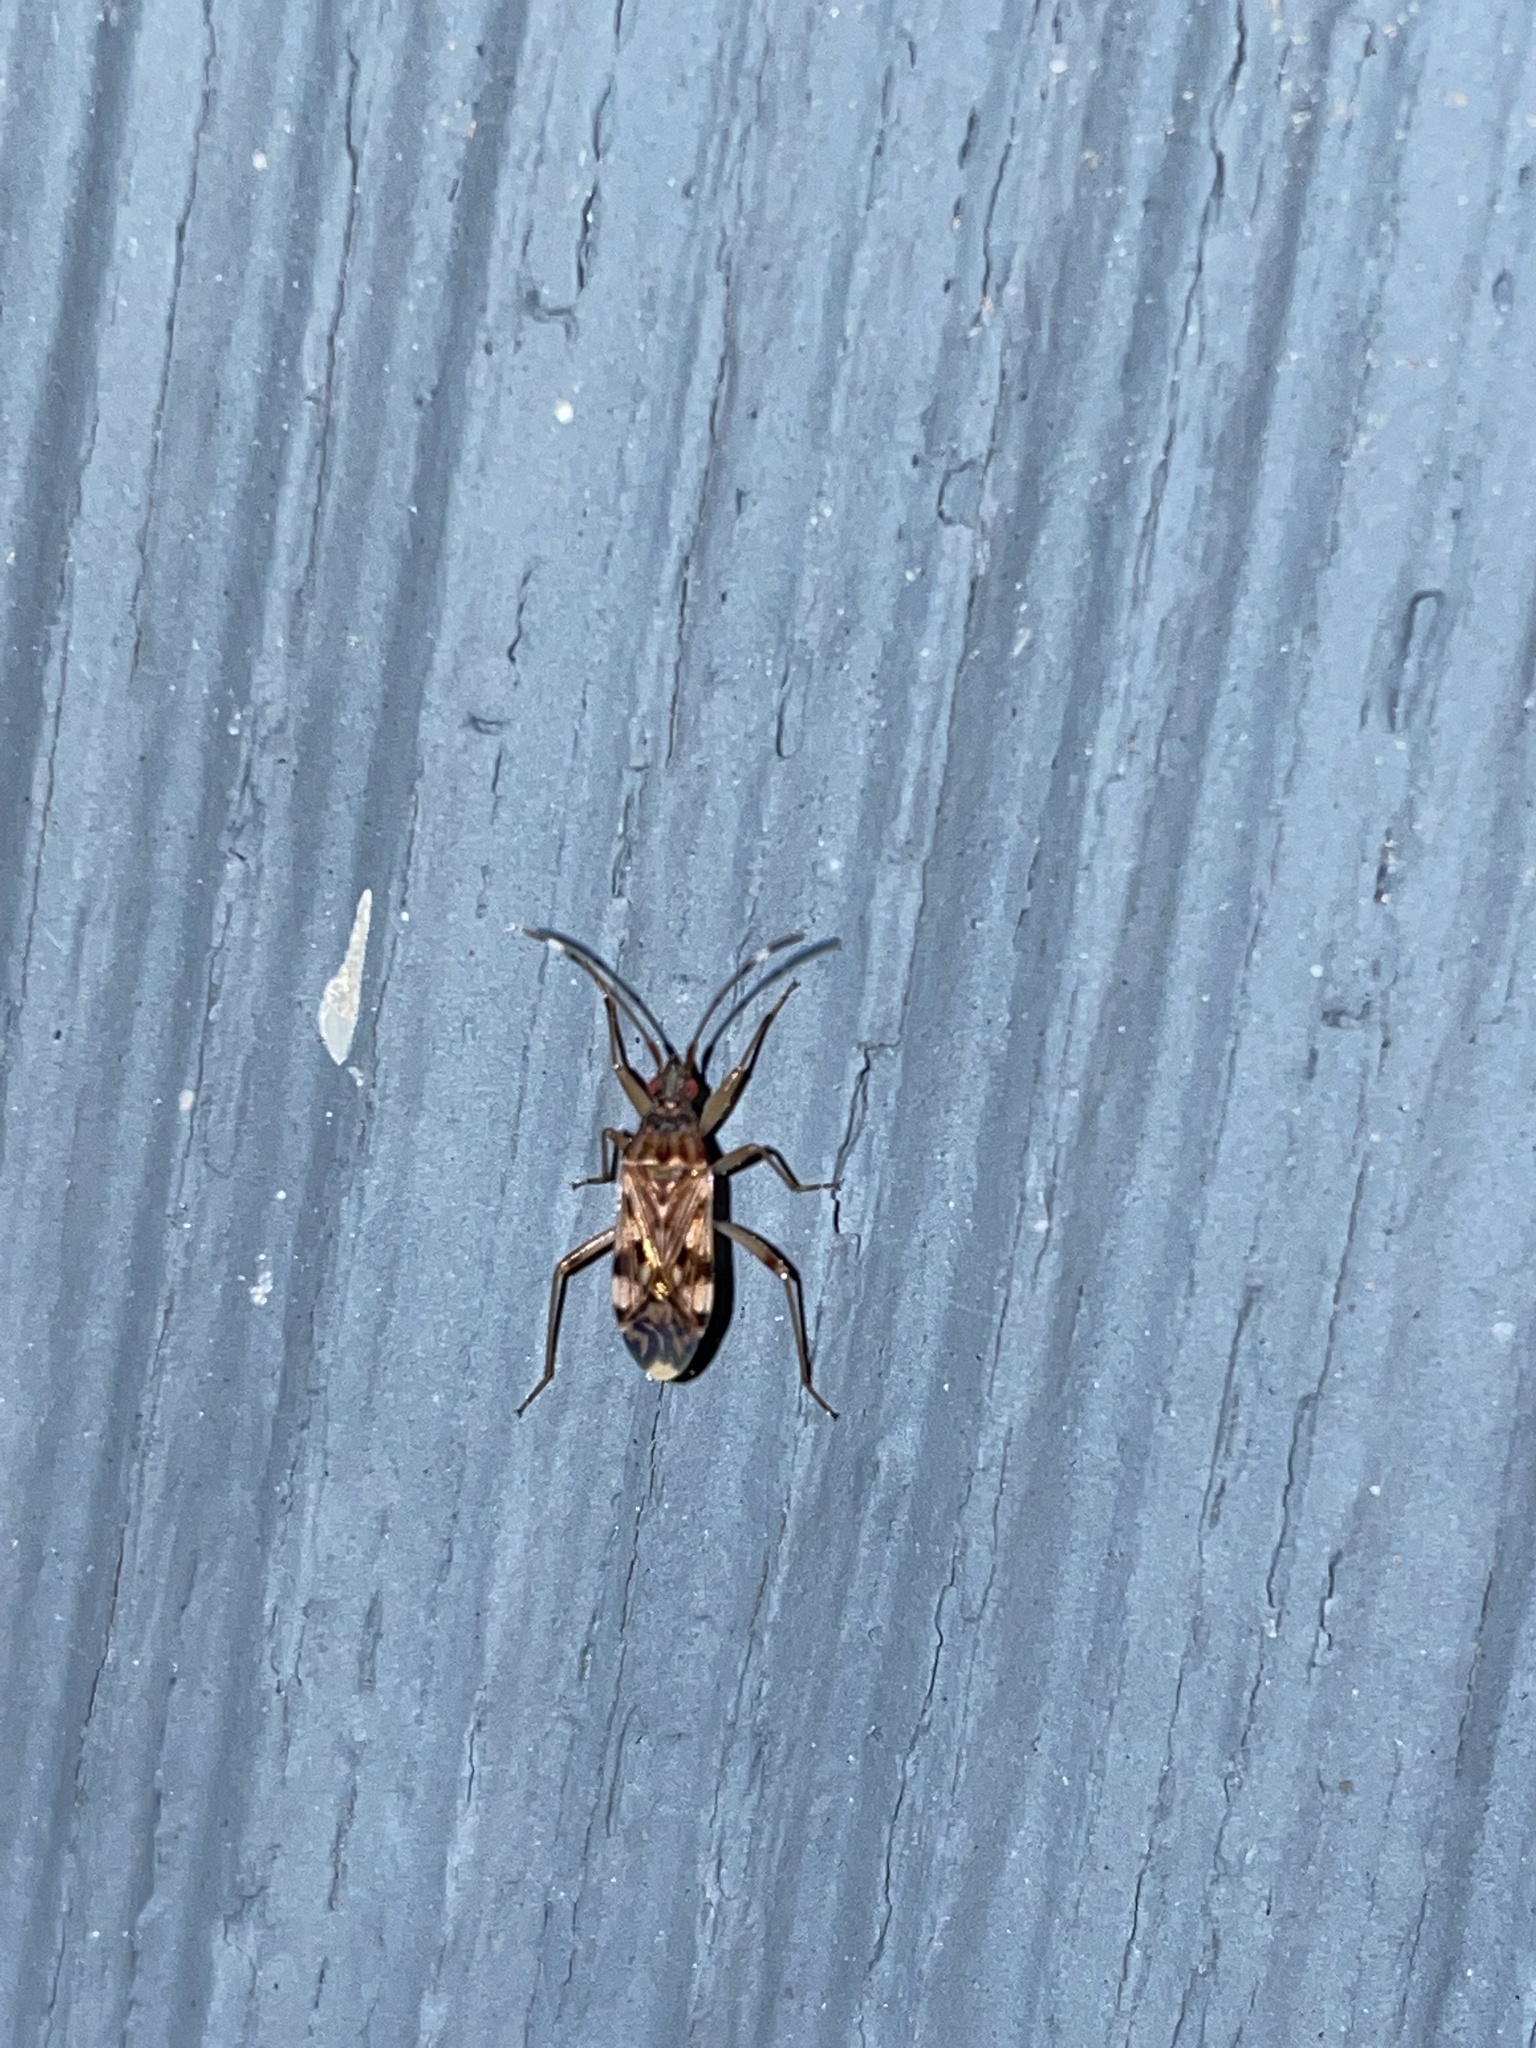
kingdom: Animalia
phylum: Arthropoda
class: Insecta
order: Hemiptera
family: Rhyparochromidae
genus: Ozophora
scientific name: Ozophora picturata
